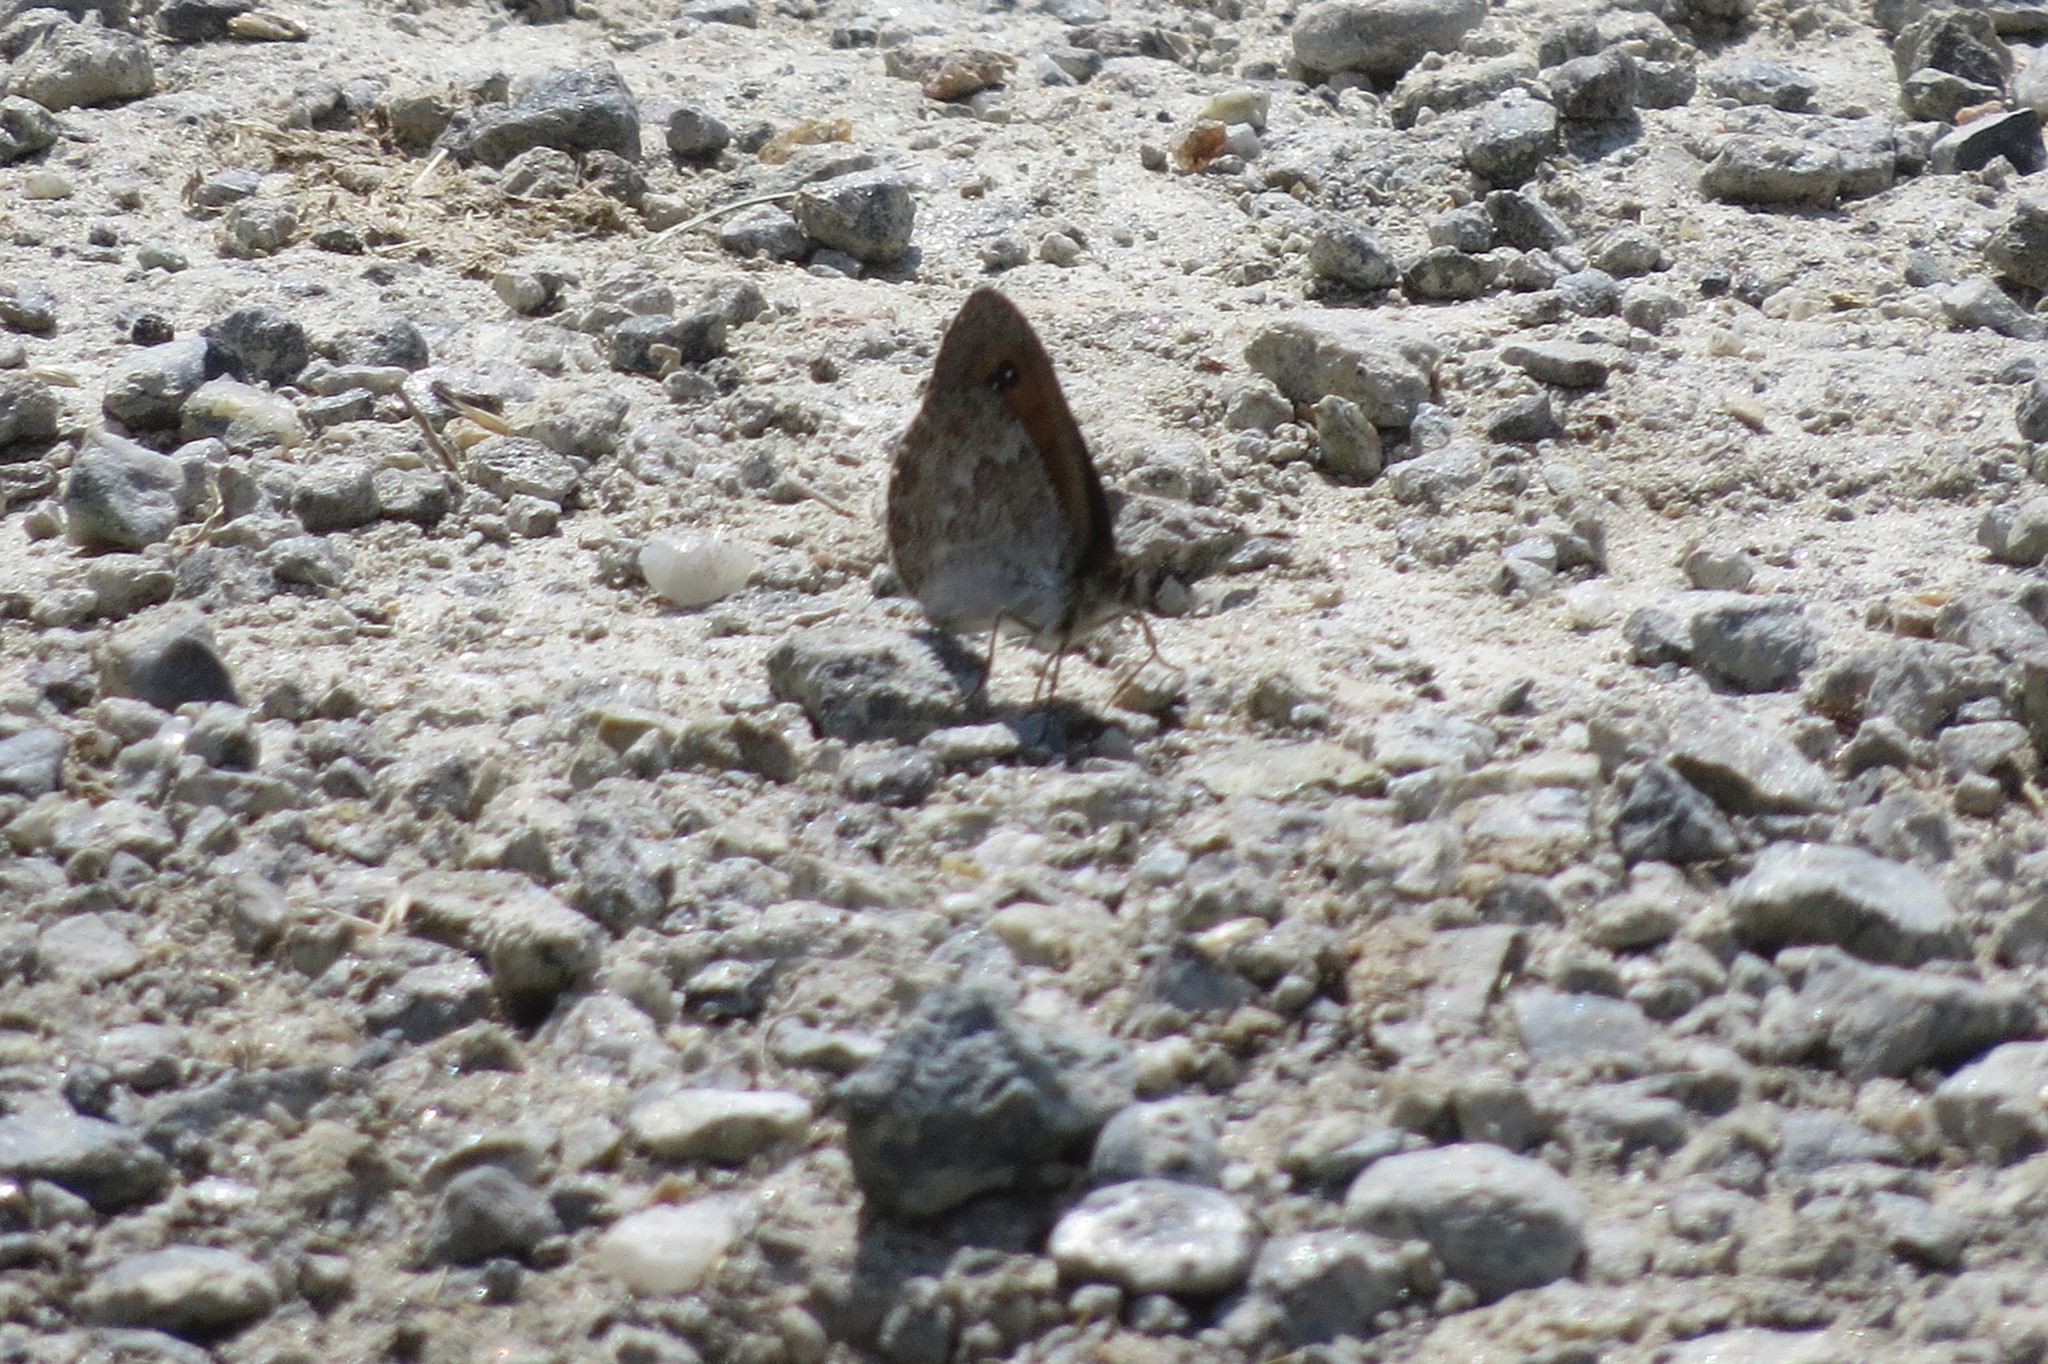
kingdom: Animalia
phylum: Arthropoda
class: Insecta
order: Lepidoptera
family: Nymphalidae
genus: Erebia
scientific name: Erebia cassioides
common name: Common brassy ringlet
